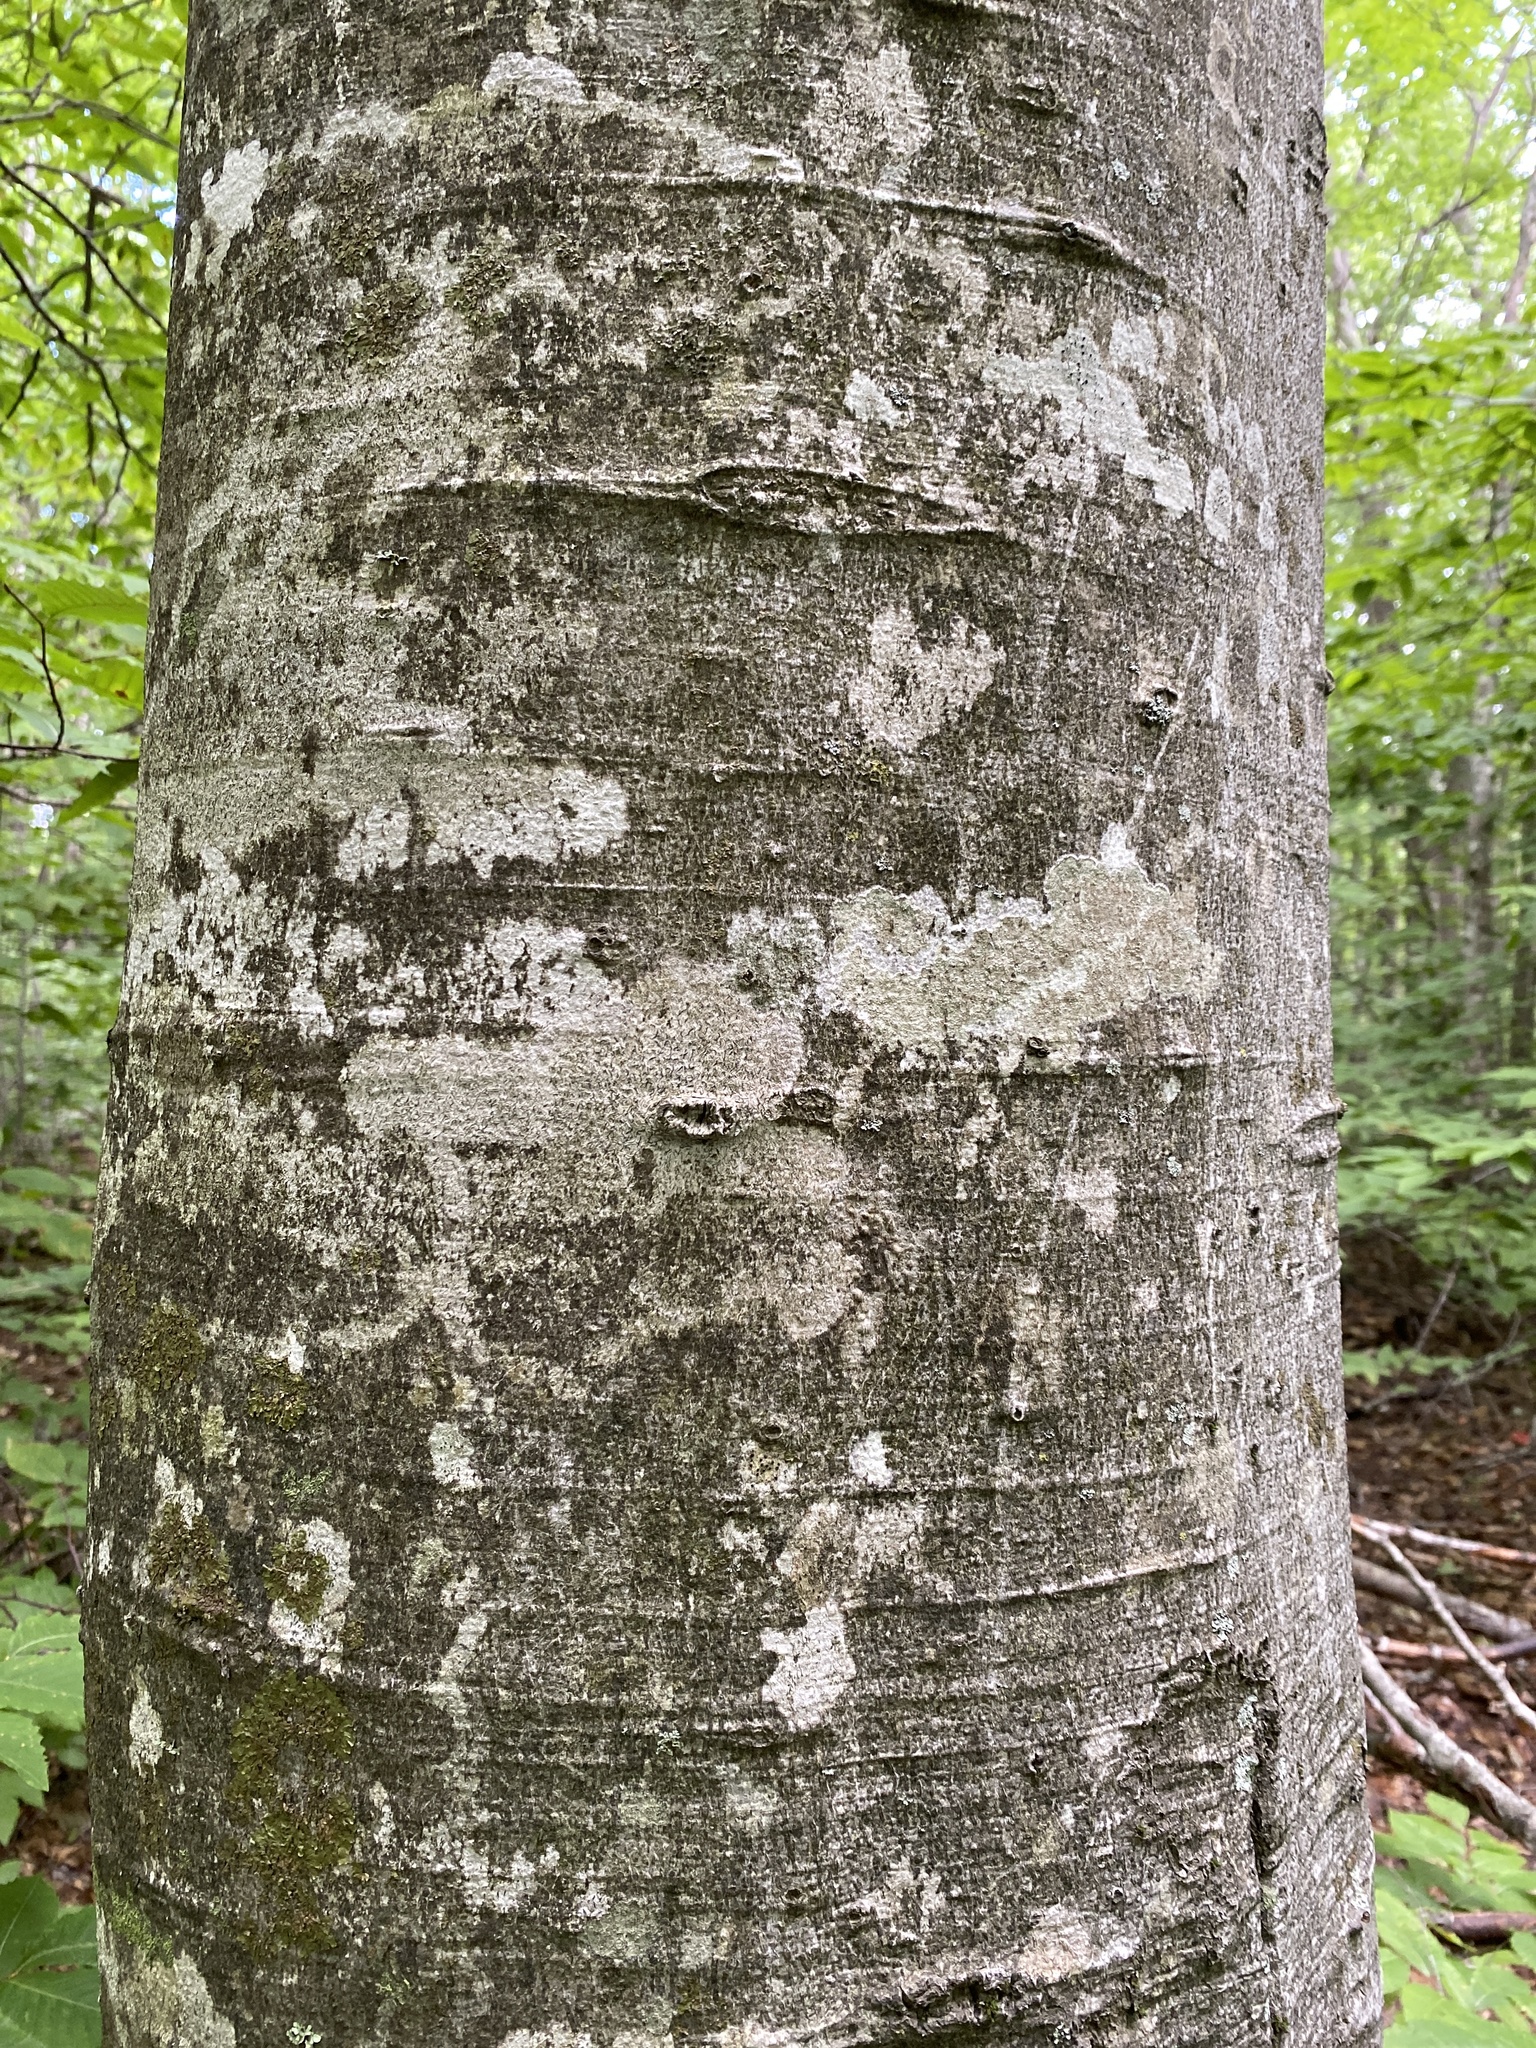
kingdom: Plantae
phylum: Tracheophyta
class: Magnoliopsida
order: Fagales
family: Fagaceae
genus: Fagus
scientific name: Fagus grandifolia
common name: American beech
